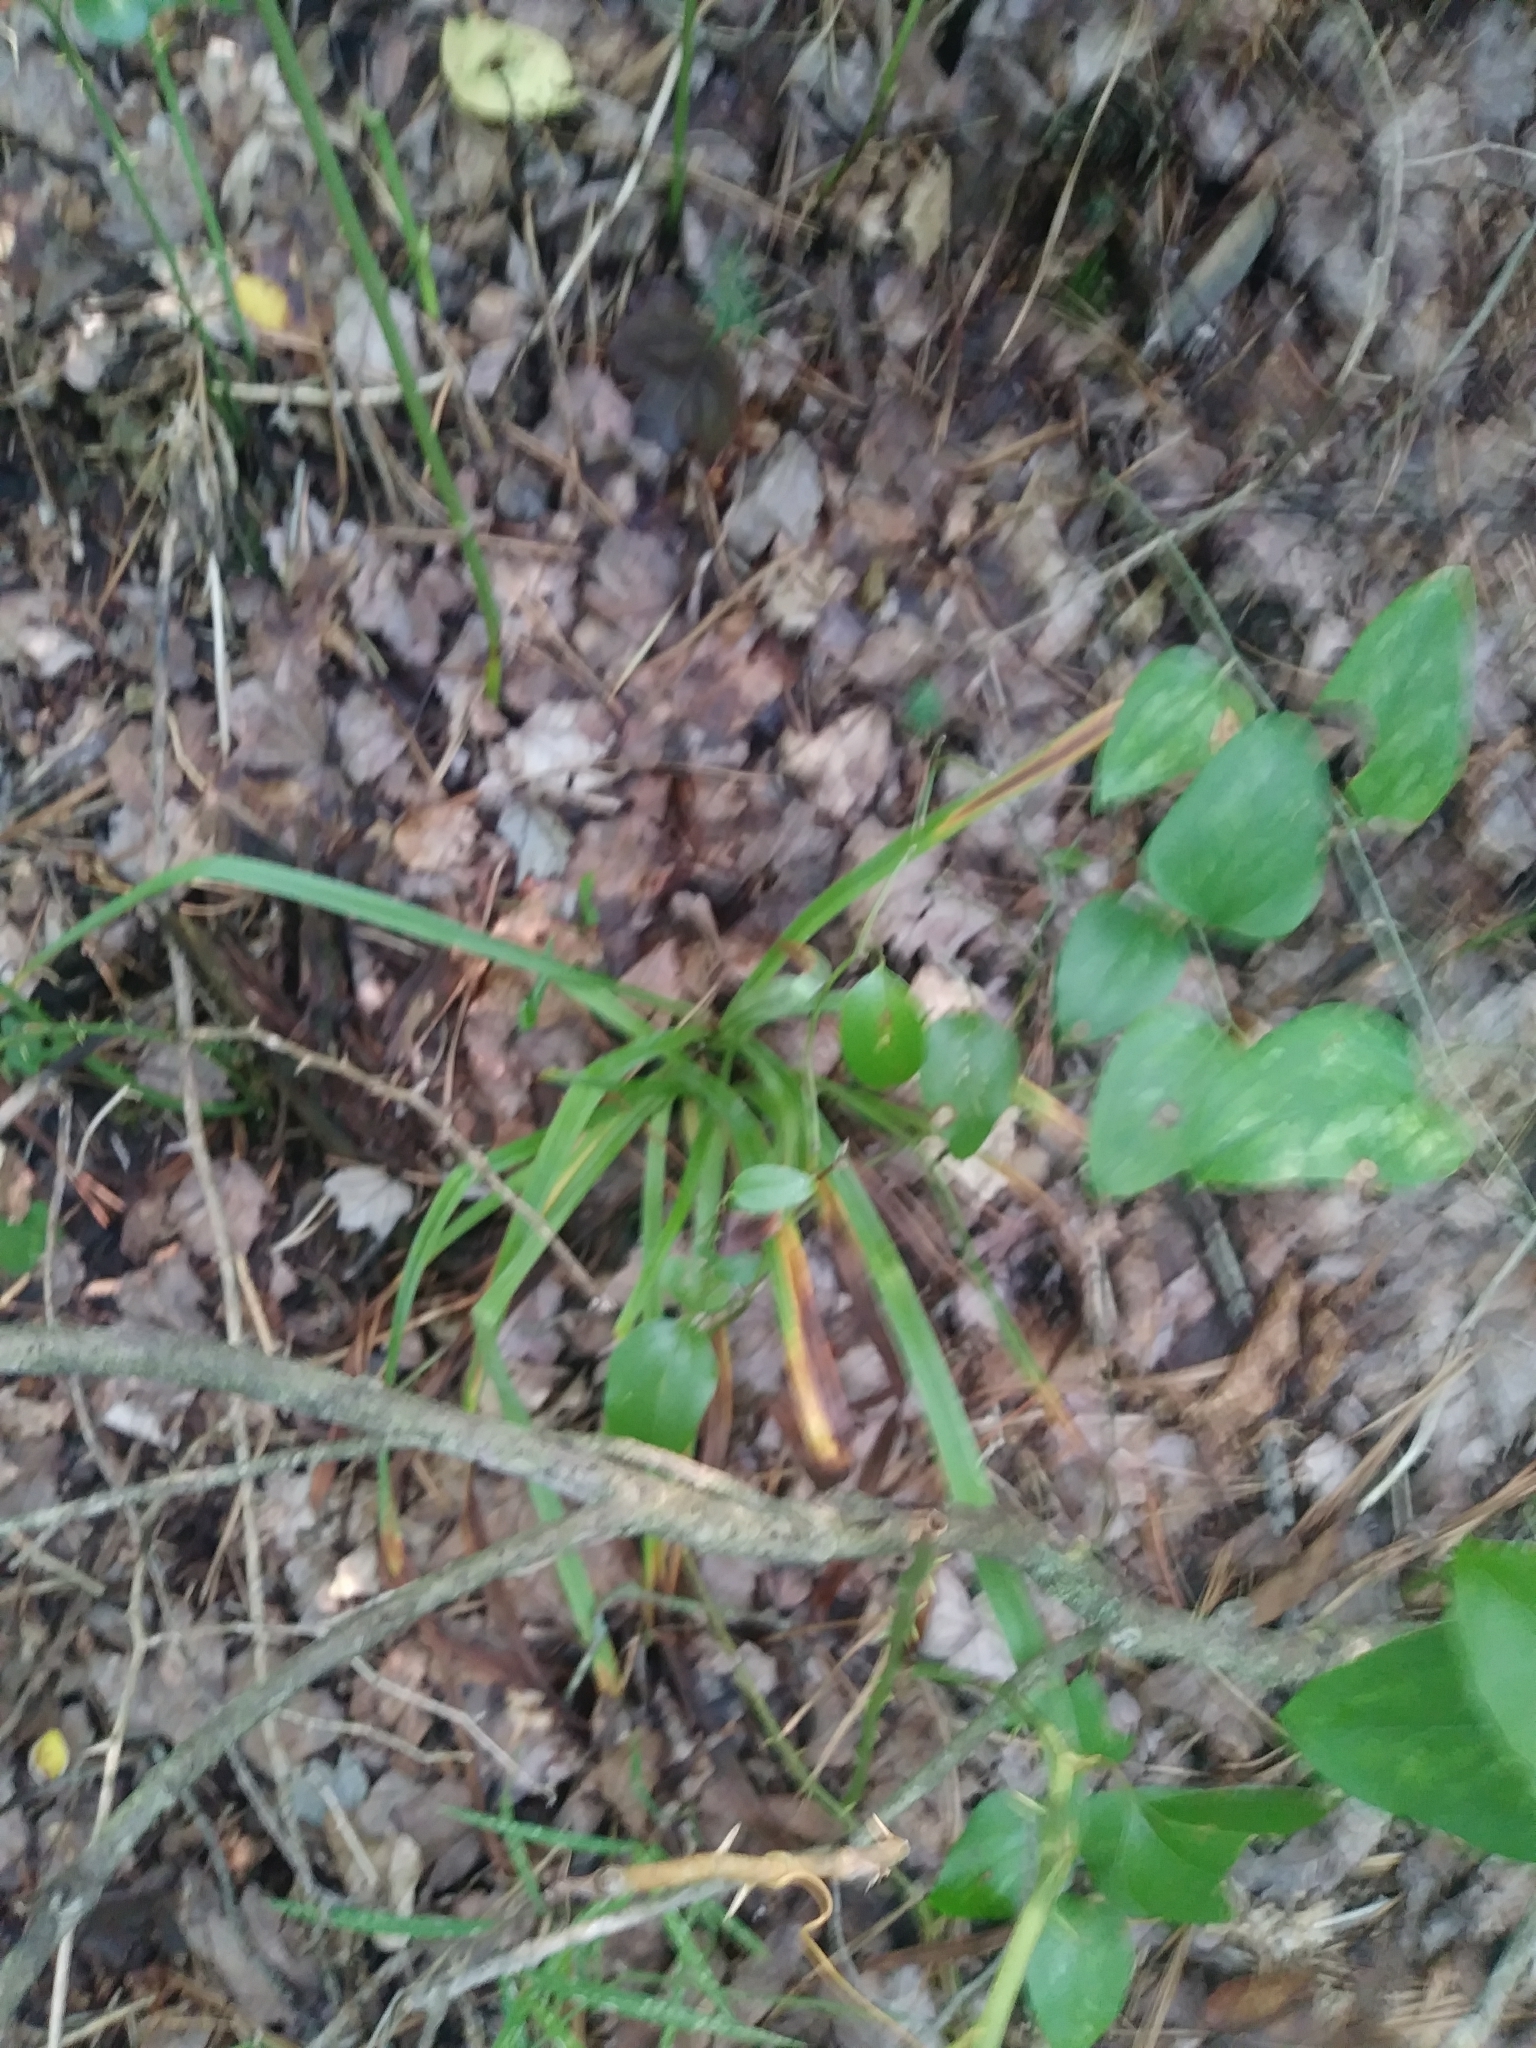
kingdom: Plantae
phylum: Tracheophyta
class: Liliopsida
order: Liliales
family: Melanthiaceae
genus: Amianthium
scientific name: Amianthium muscitoxicum
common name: Fly-poison
